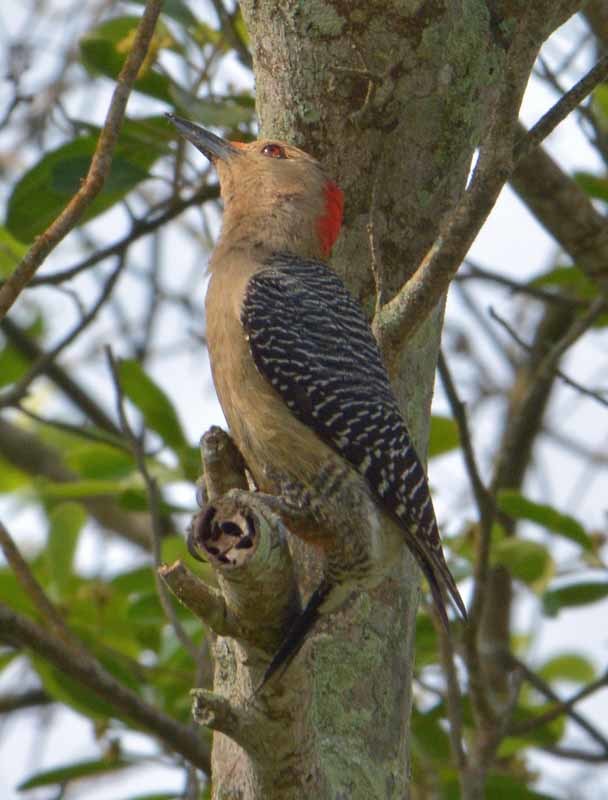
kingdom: Animalia
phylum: Chordata
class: Aves
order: Piciformes
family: Picidae
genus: Melanerpes
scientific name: Melanerpes aurifrons
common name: Golden-fronted woodpecker
